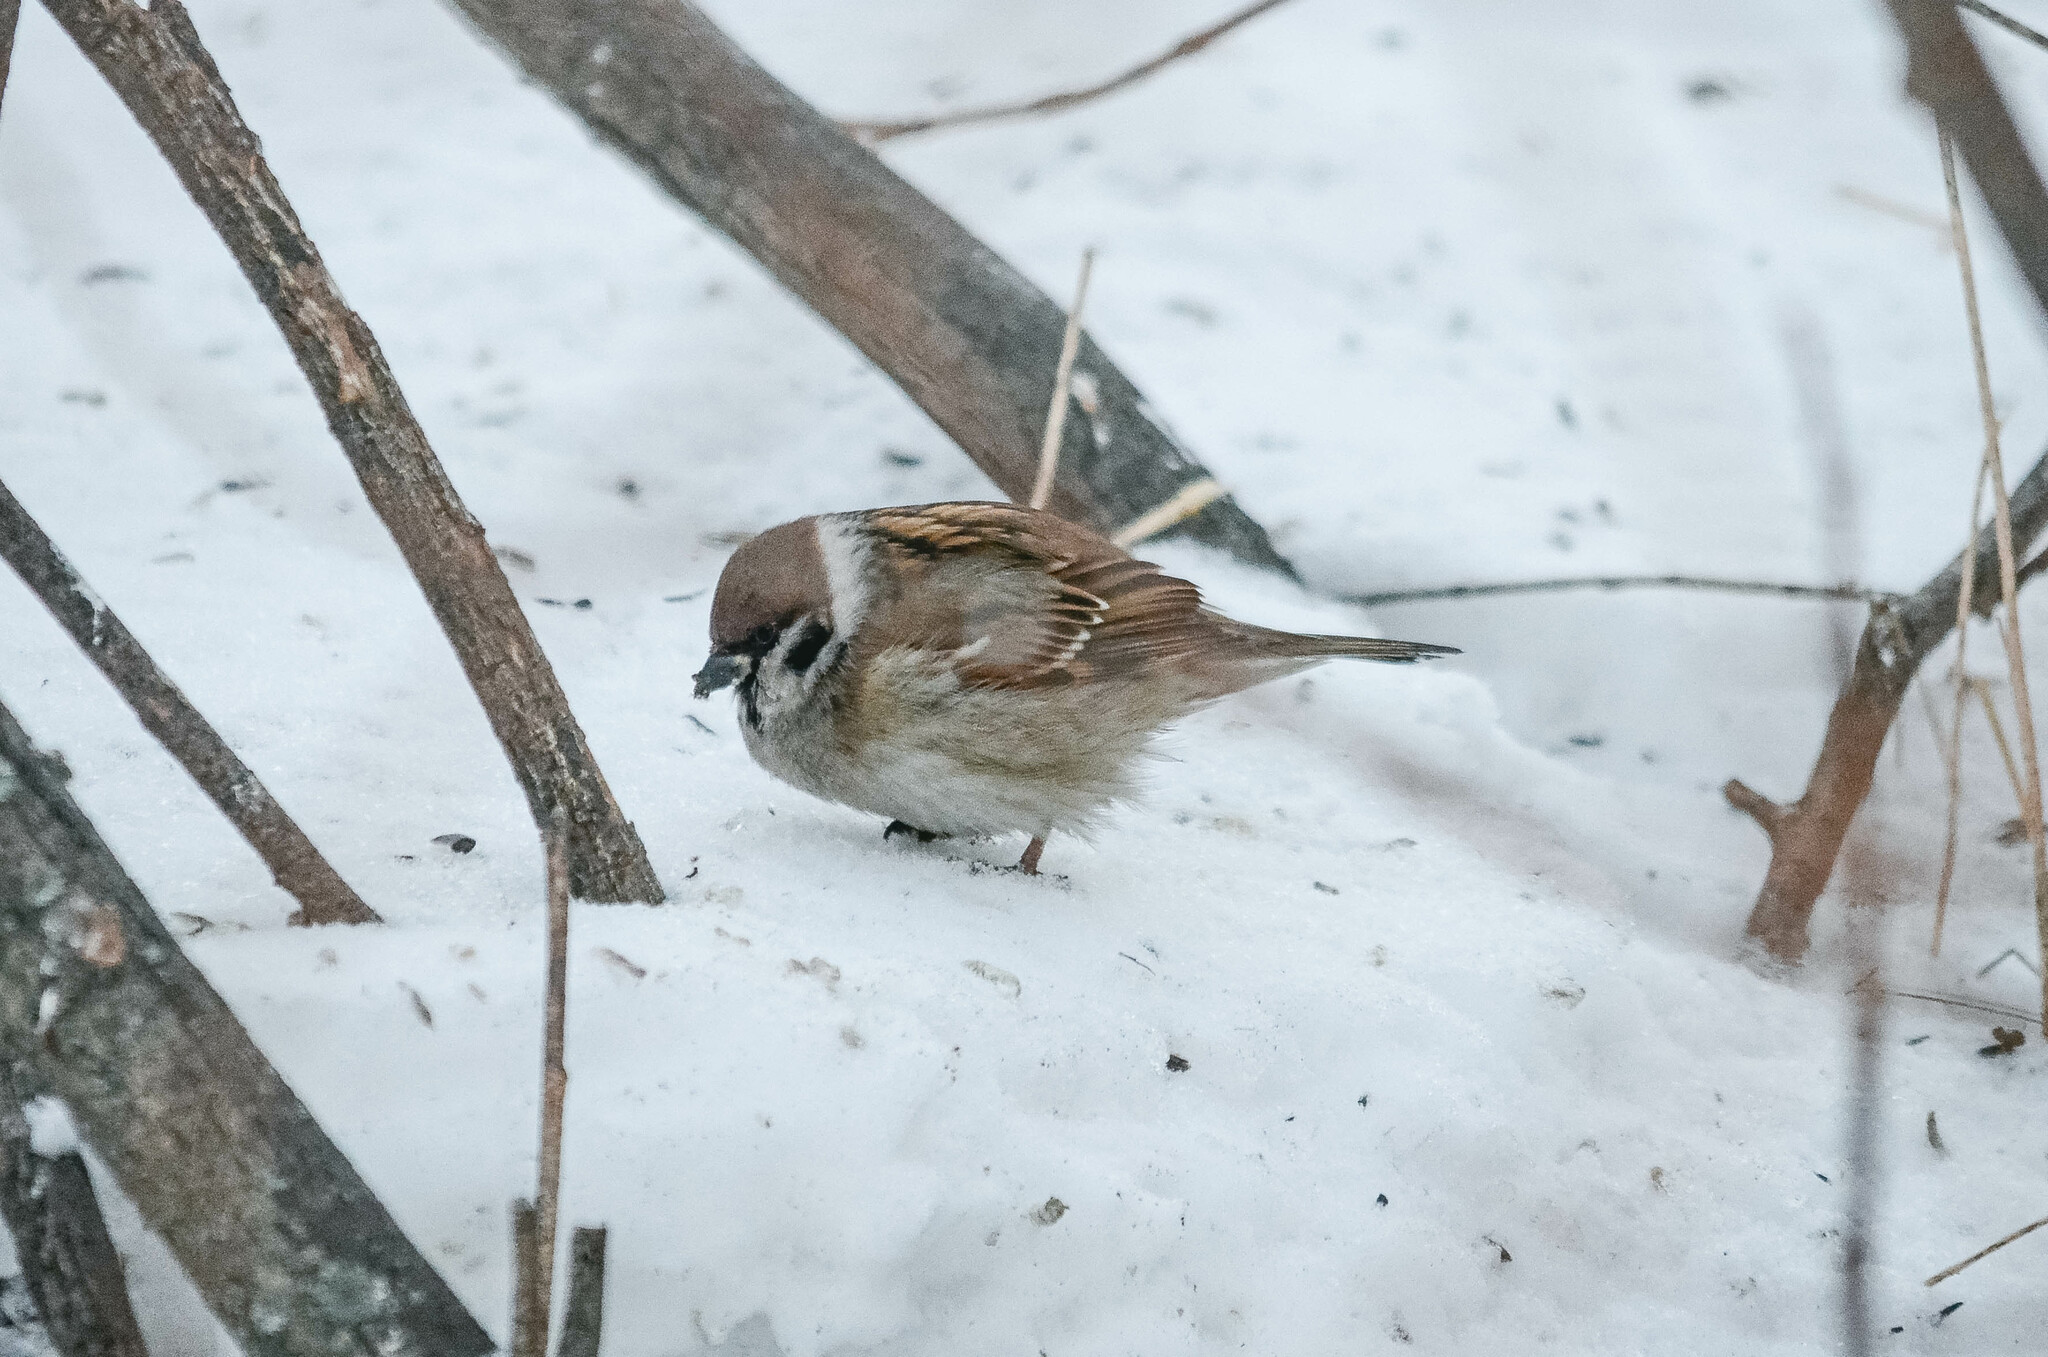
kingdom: Animalia
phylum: Chordata
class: Aves
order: Passeriformes
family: Passeridae
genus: Passer
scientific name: Passer montanus
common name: Eurasian tree sparrow
